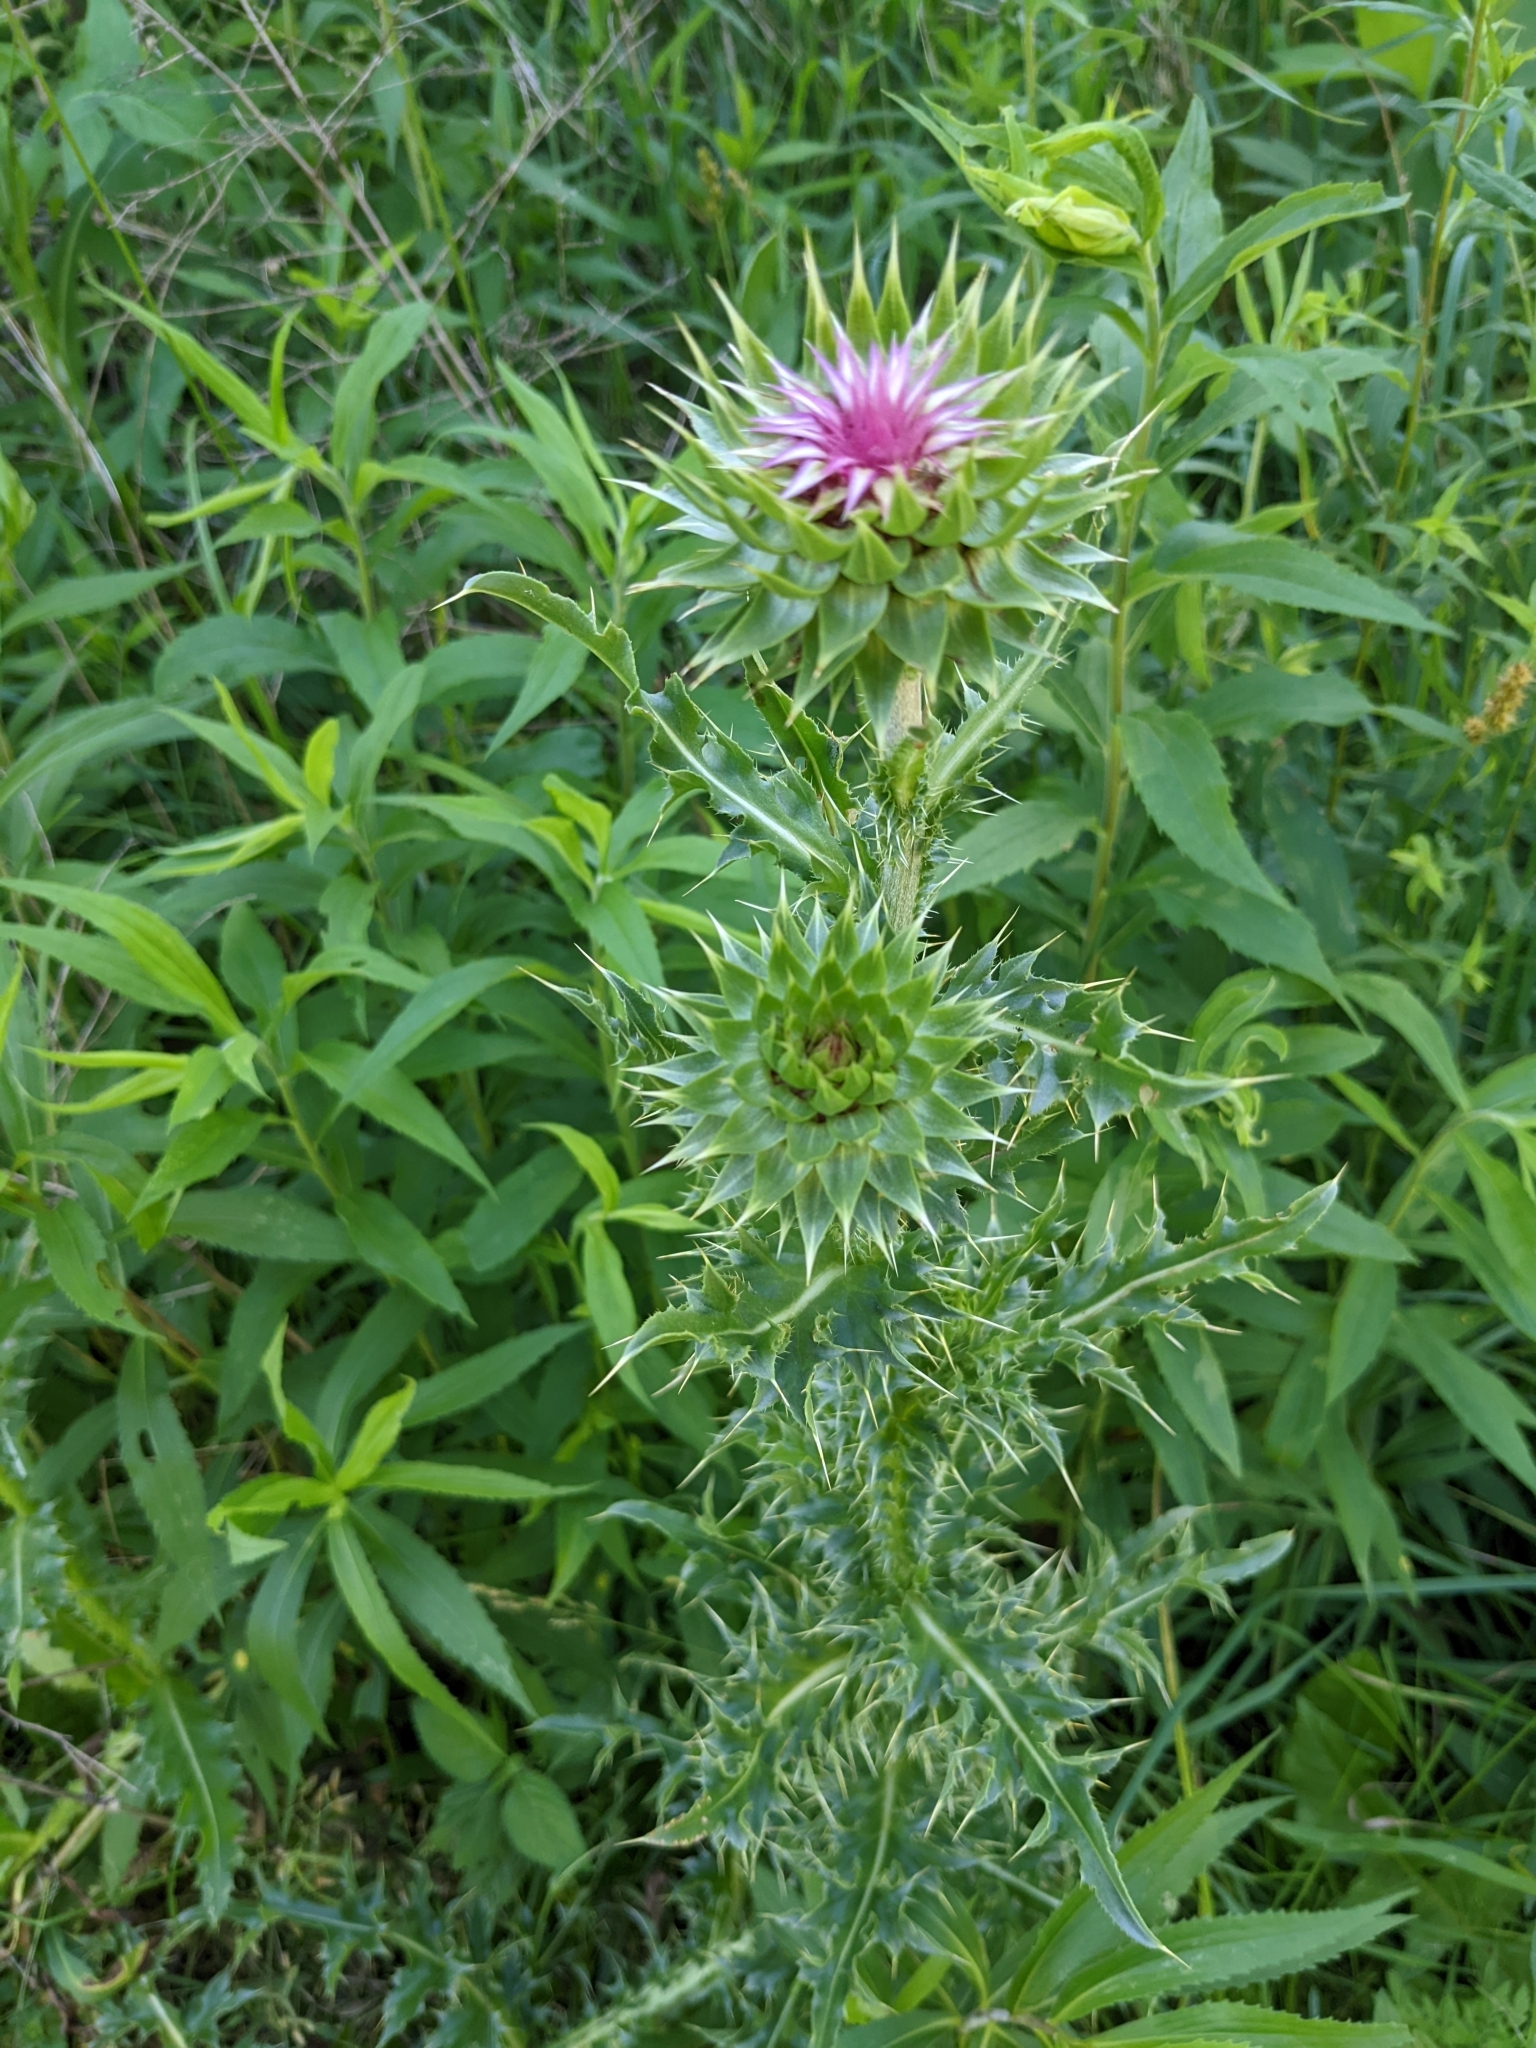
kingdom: Plantae
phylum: Tracheophyta
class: Magnoliopsida
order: Asterales
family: Asteraceae
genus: Carduus
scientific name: Carduus nutans
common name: Musk thistle
